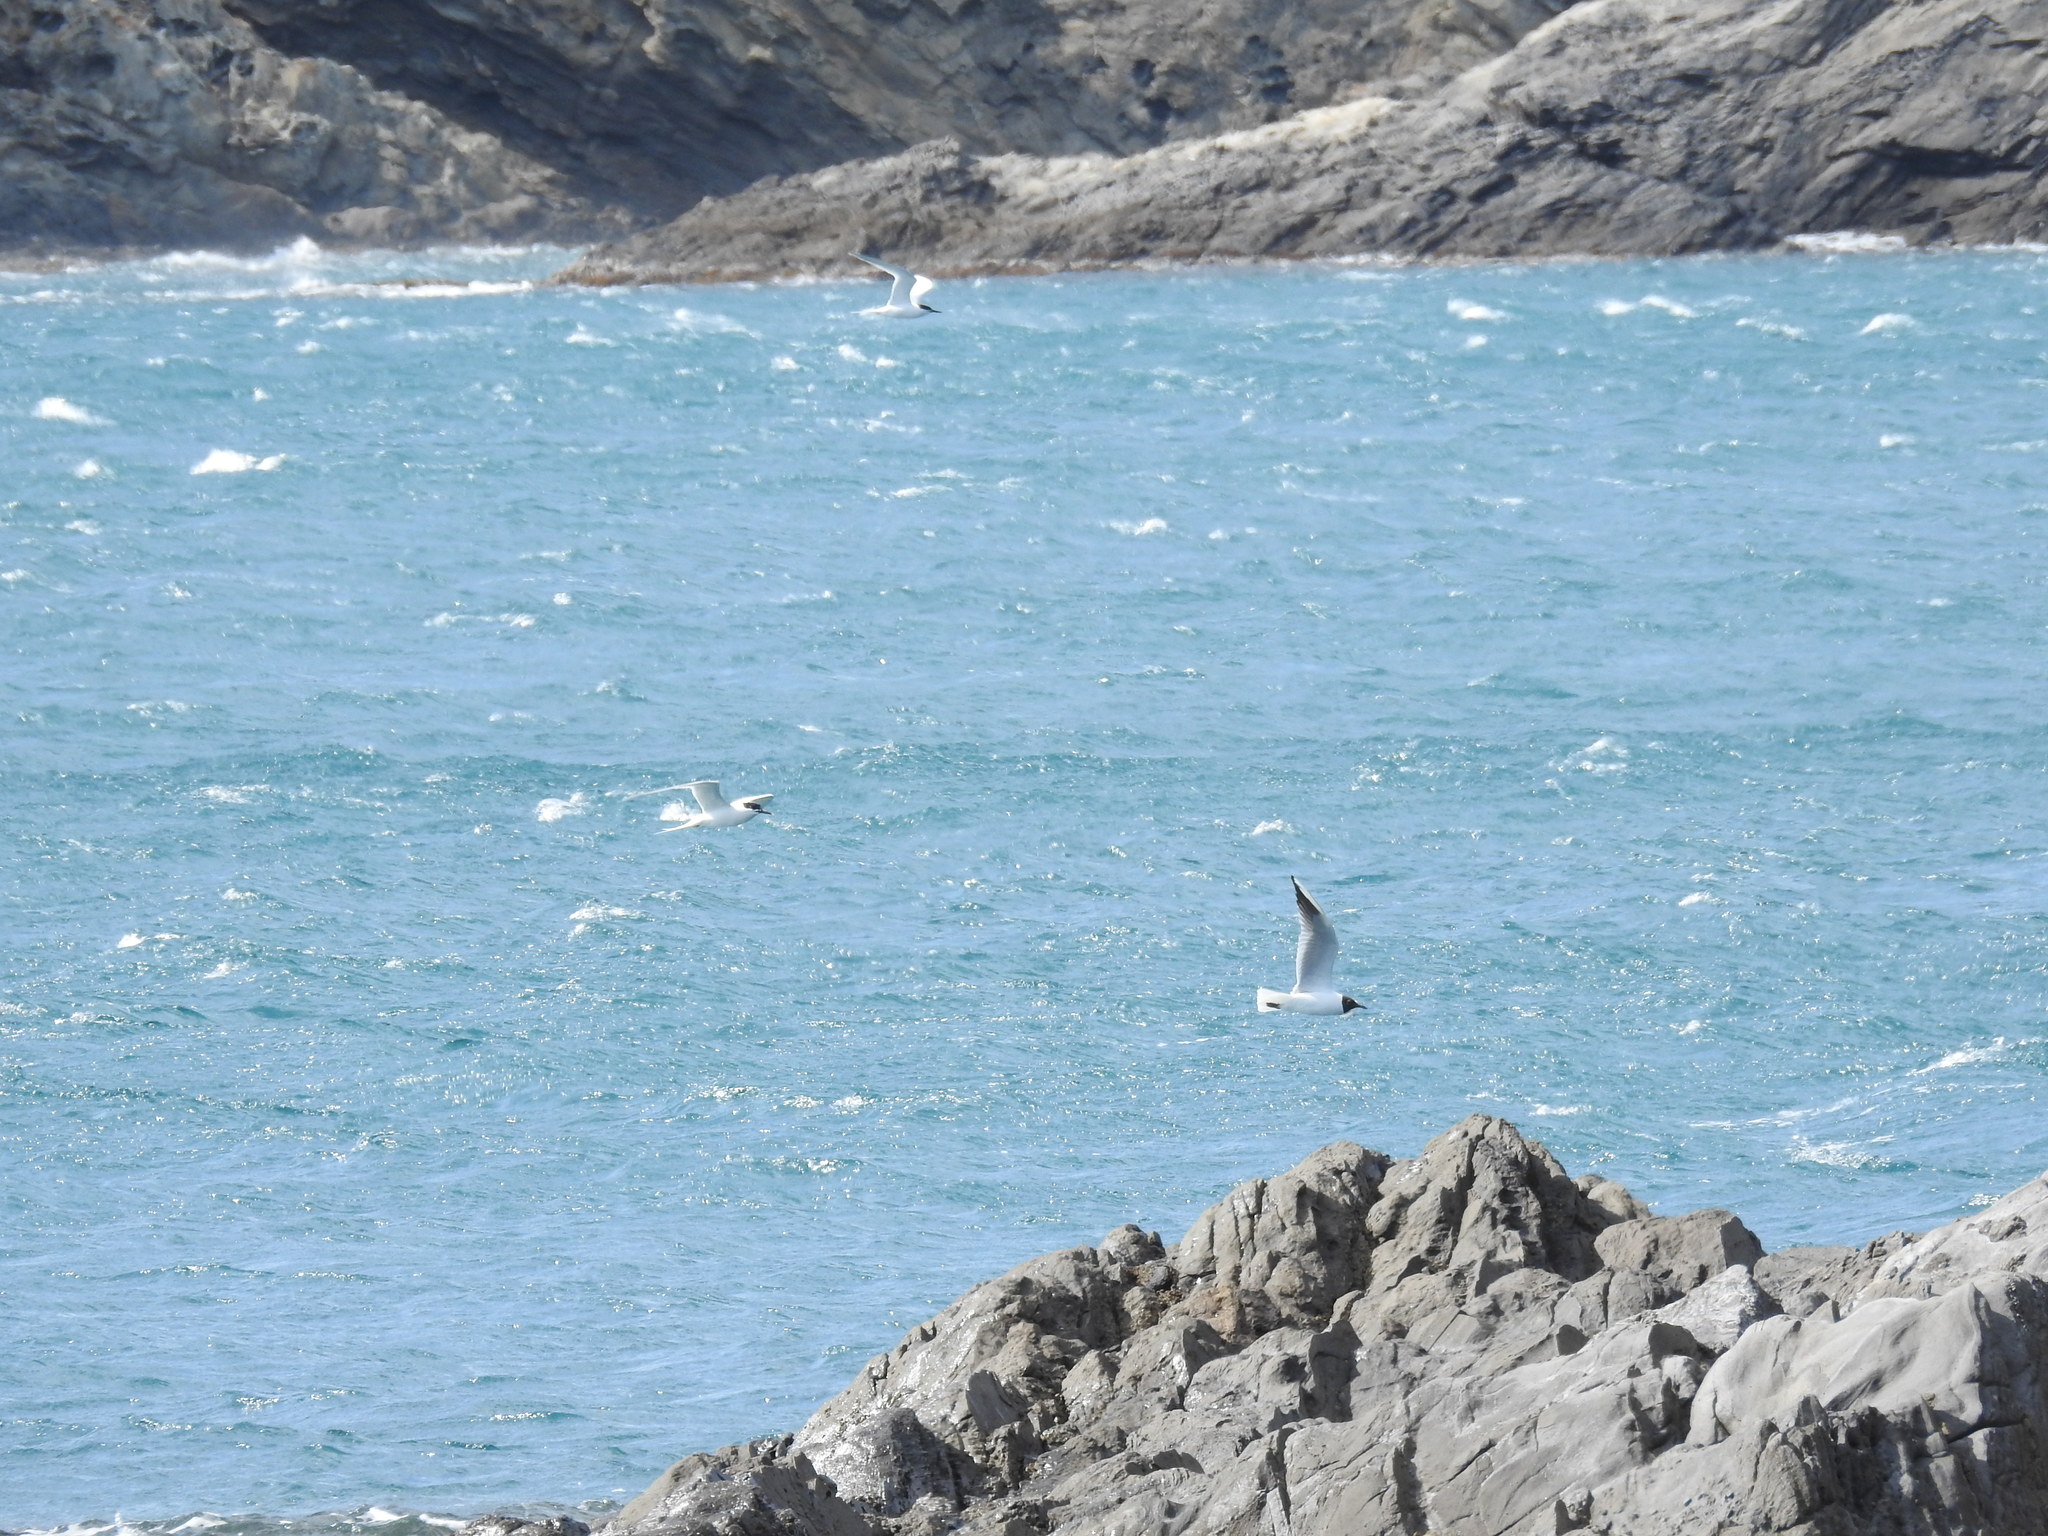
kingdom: Animalia
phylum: Chordata
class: Aves
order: Charadriiformes
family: Laridae
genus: Chroicocephalus
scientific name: Chroicocephalus ridibundus
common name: Black-headed gull
